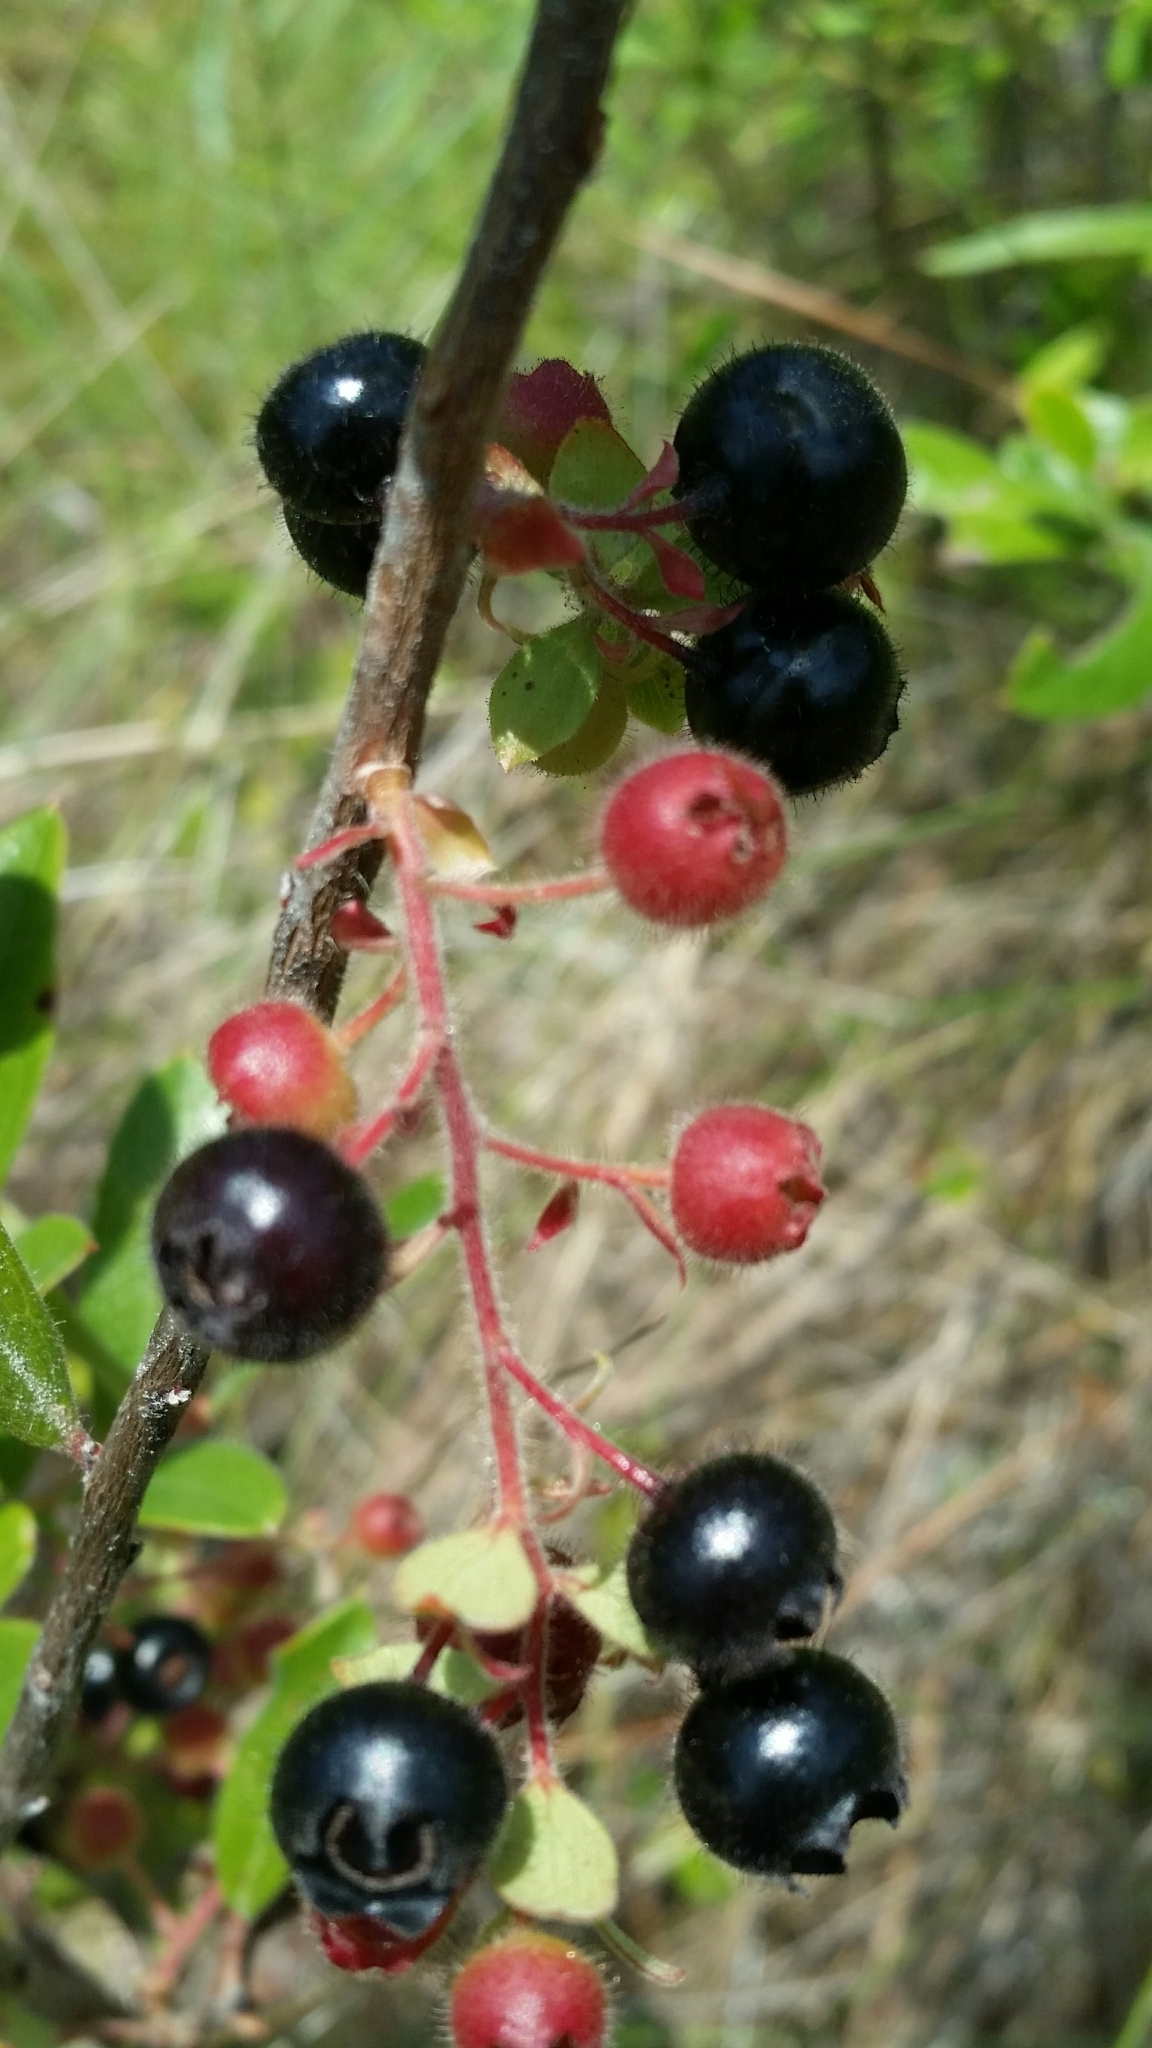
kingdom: Plantae
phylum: Tracheophyta
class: Magnoliopsida
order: Ericales
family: Ericaceae
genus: Gaylussacia
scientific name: Gaylussacia mosieri
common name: Hirsute huckleberry
